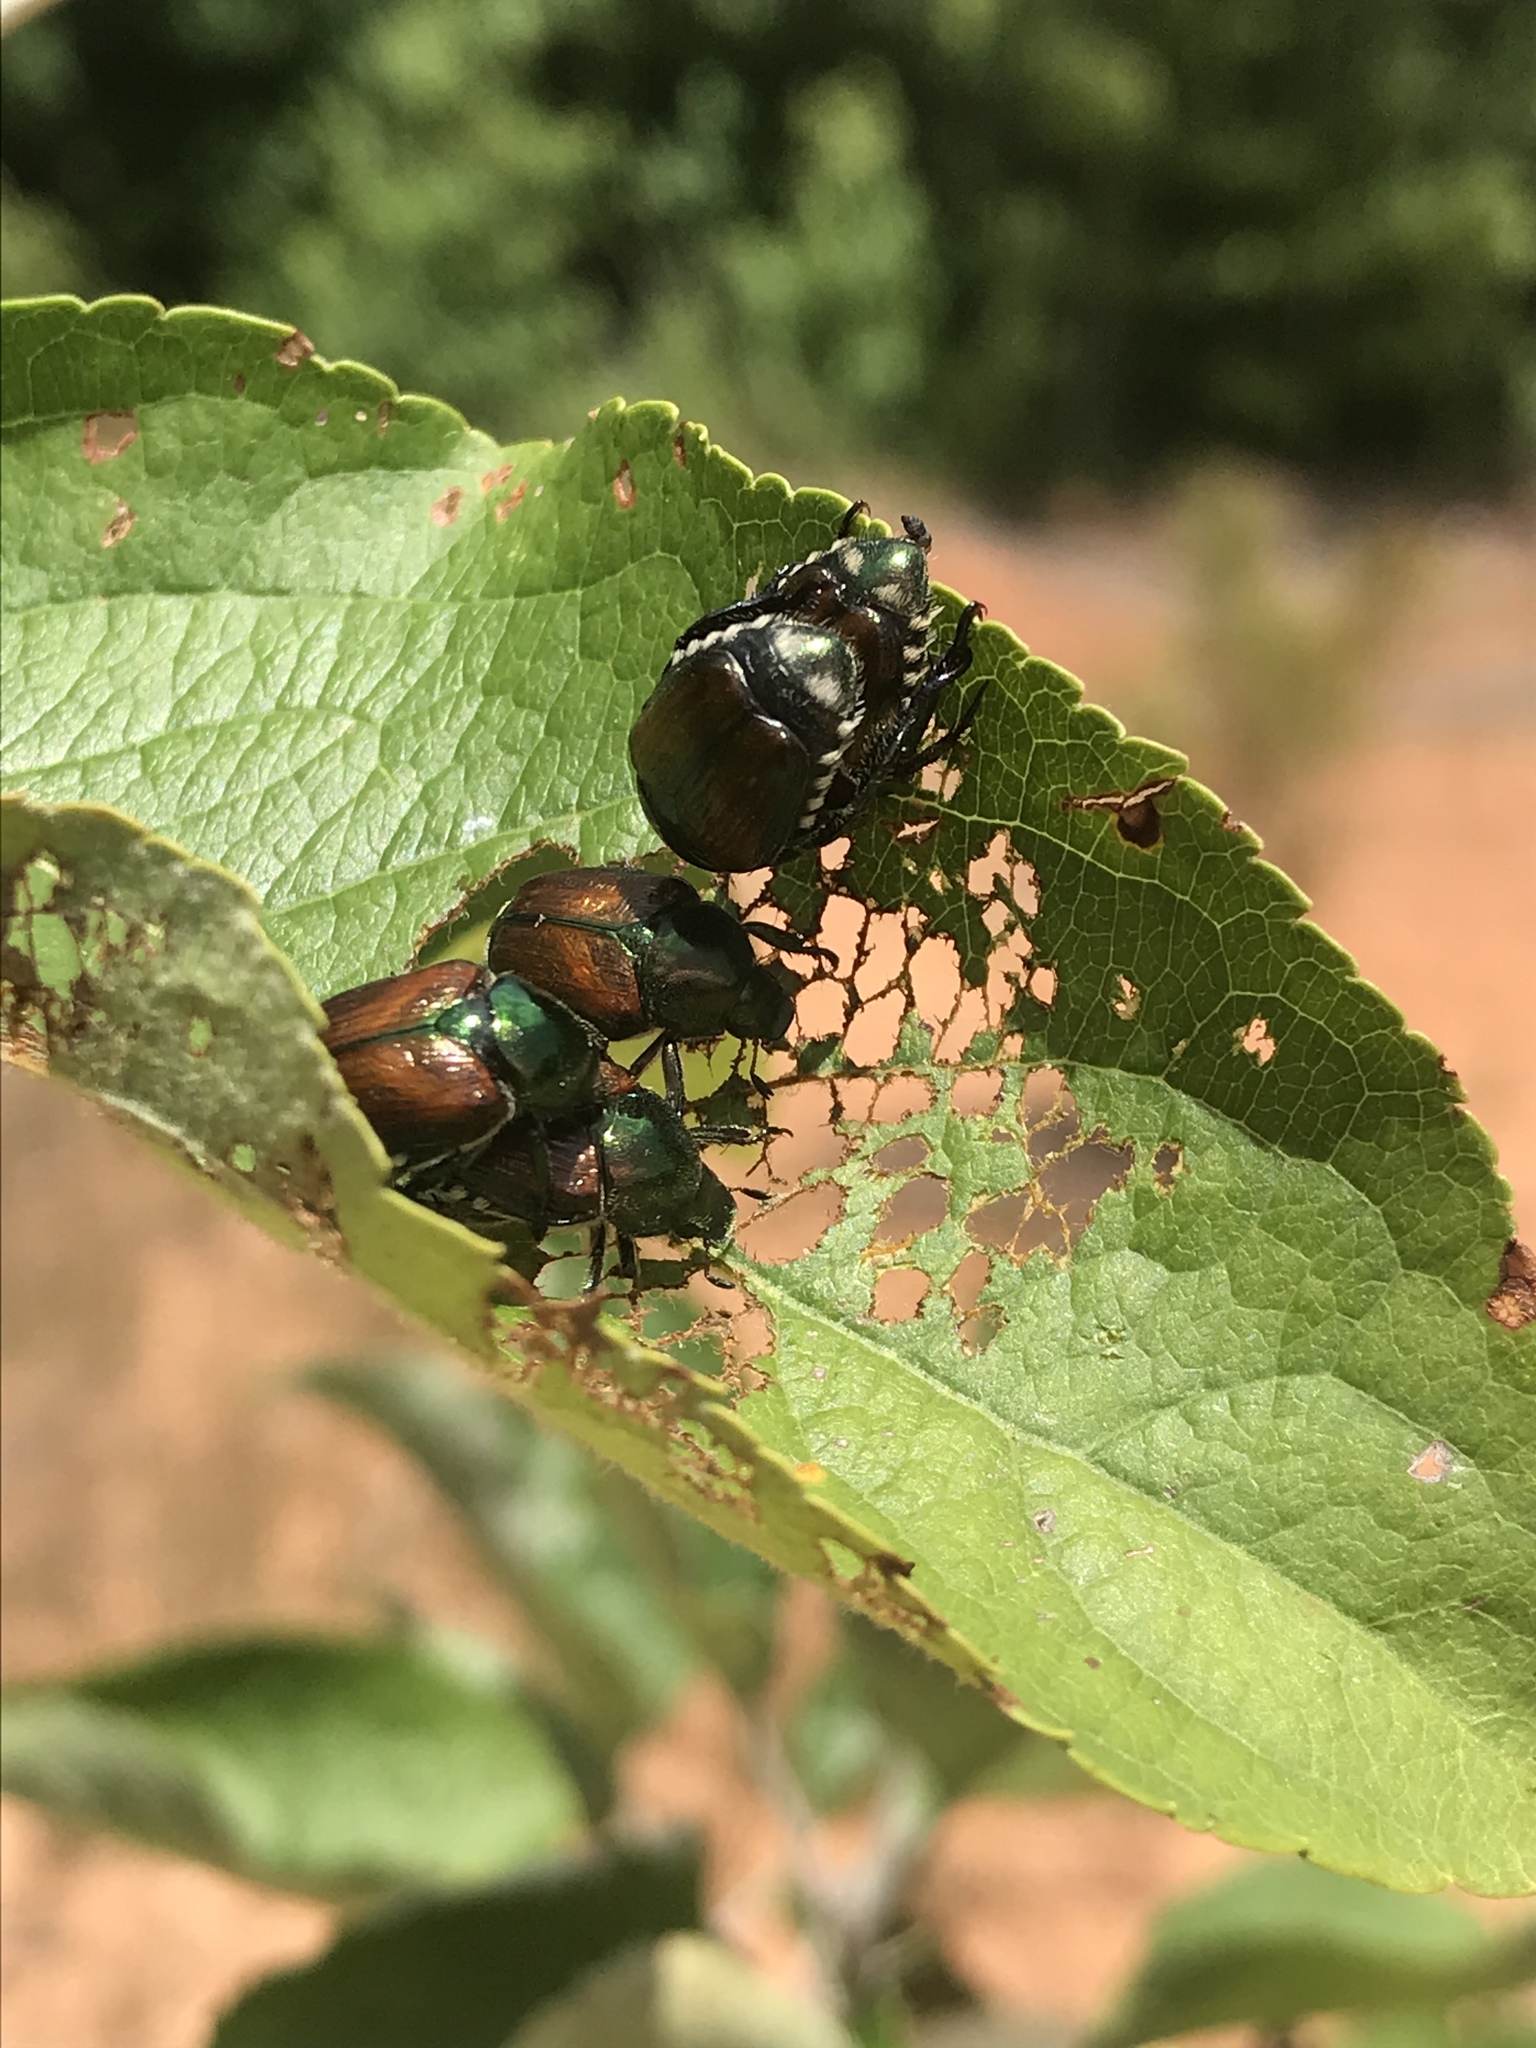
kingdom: Animalia
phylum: Arthropoda
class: Insecta
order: Coleoptera
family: Scarabaeidae
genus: Popillia
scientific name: Popillia japonica
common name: Japanese beetle
